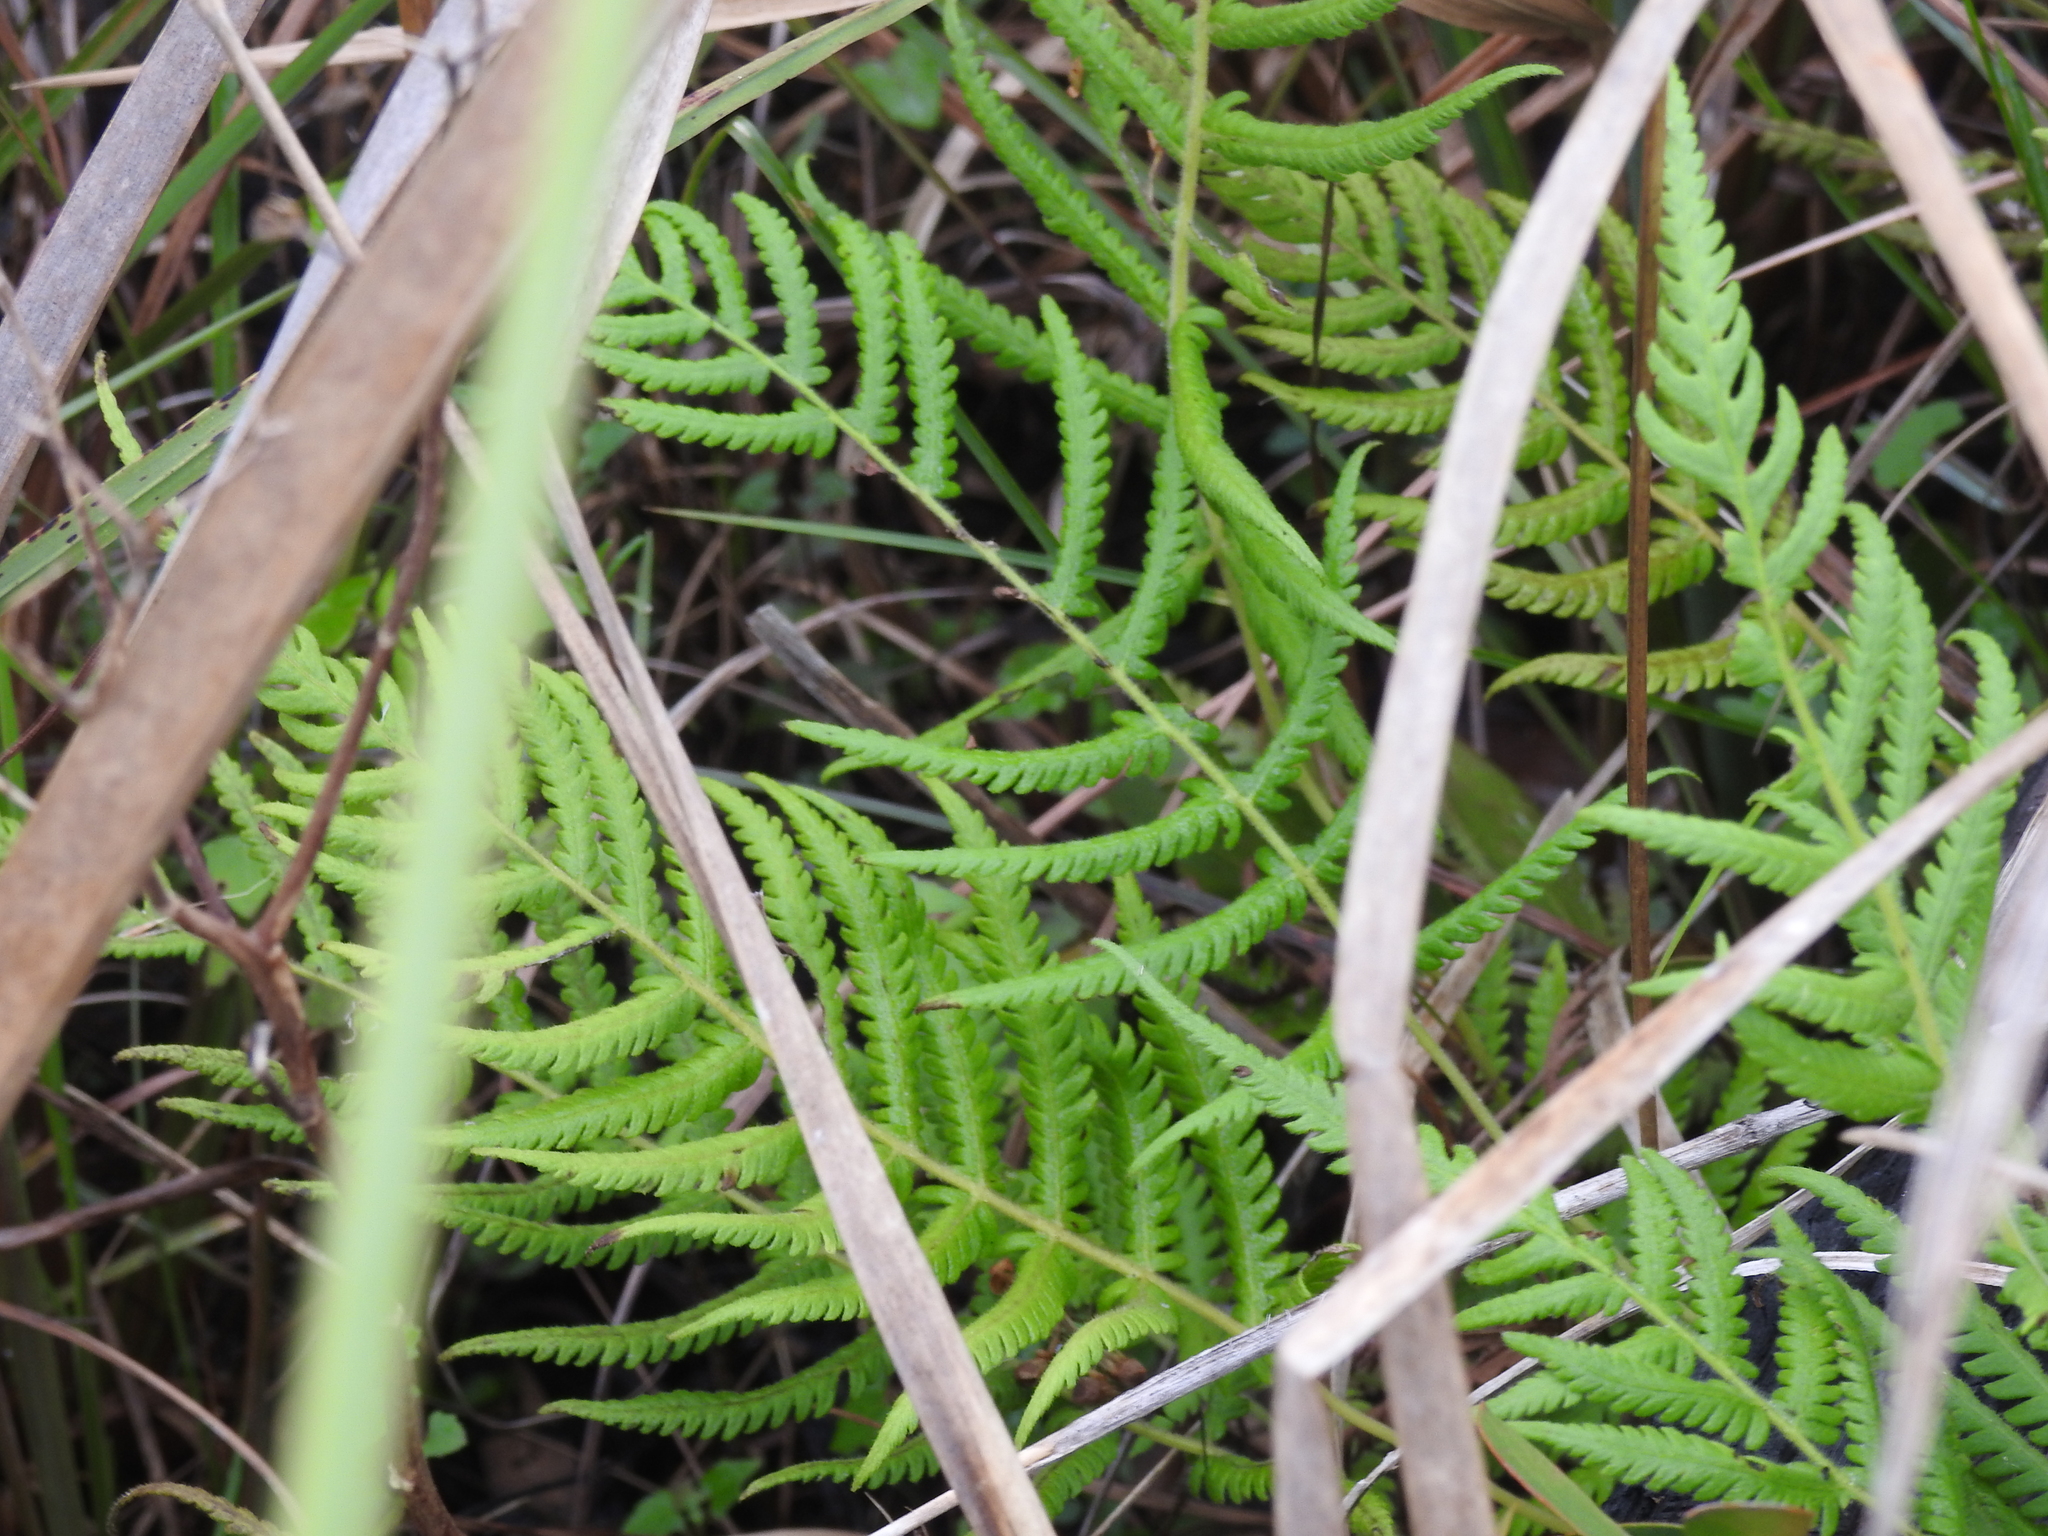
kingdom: Plantae
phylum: Tracheophyta
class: Polypodiopsida
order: Polypodiales
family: Thelypteridaceae
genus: Pelazoneuron
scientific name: Pelazoneuron kunthii
